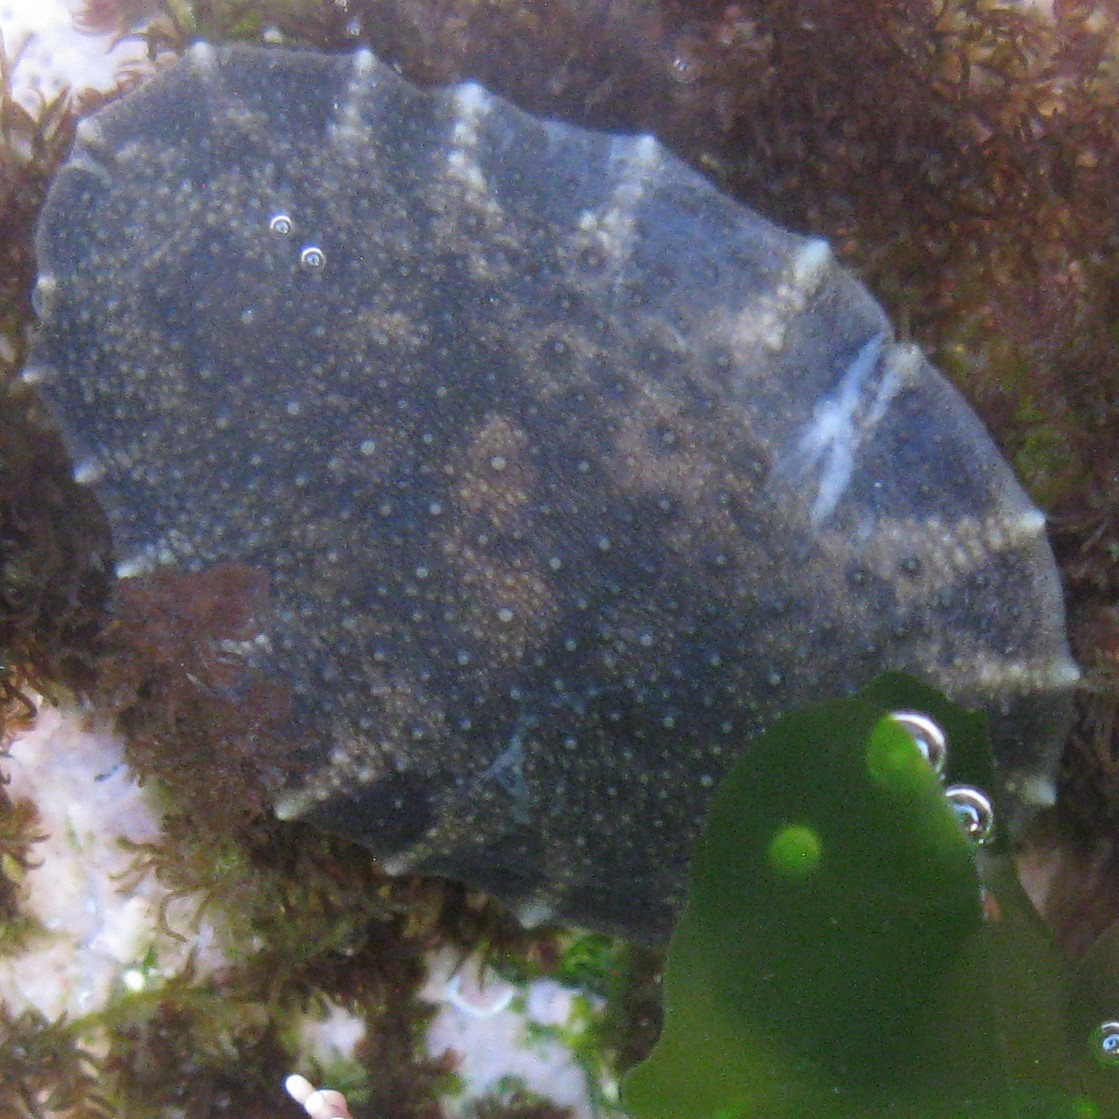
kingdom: Animalia
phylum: Mollusca
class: Gastropoda
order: Systellommatophora
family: Onchidiidae
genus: Onchidella
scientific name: Onchidella nigricans
